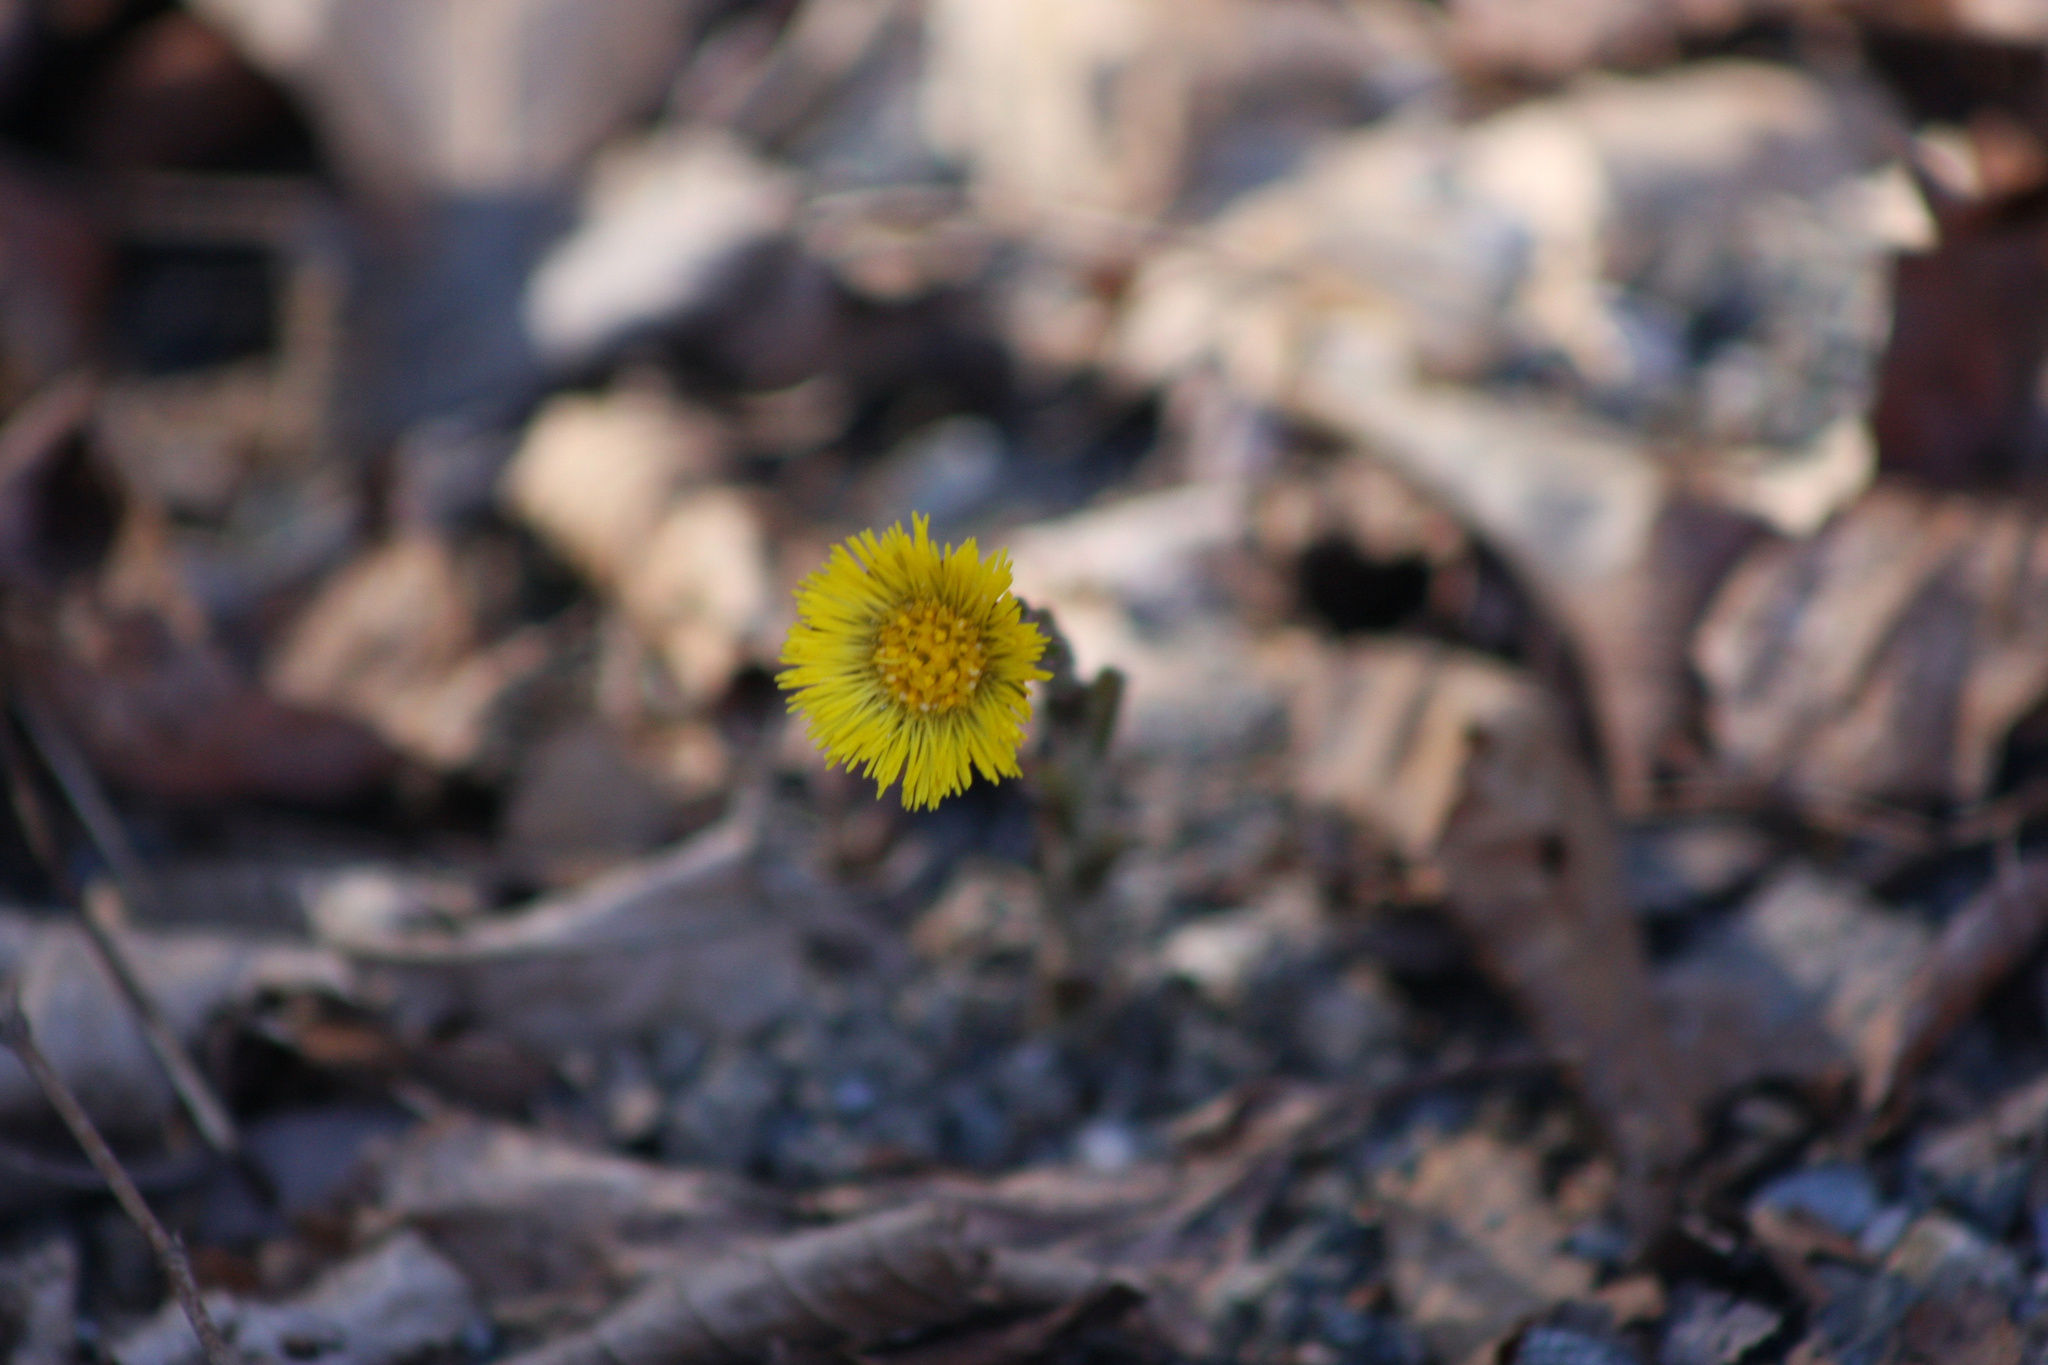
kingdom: Plantae
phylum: Tracheophyta
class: Magnoliopsida
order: Asterales
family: Asteraceae
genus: Tussilago
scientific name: Tussilago farfara
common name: Coltsfoot
